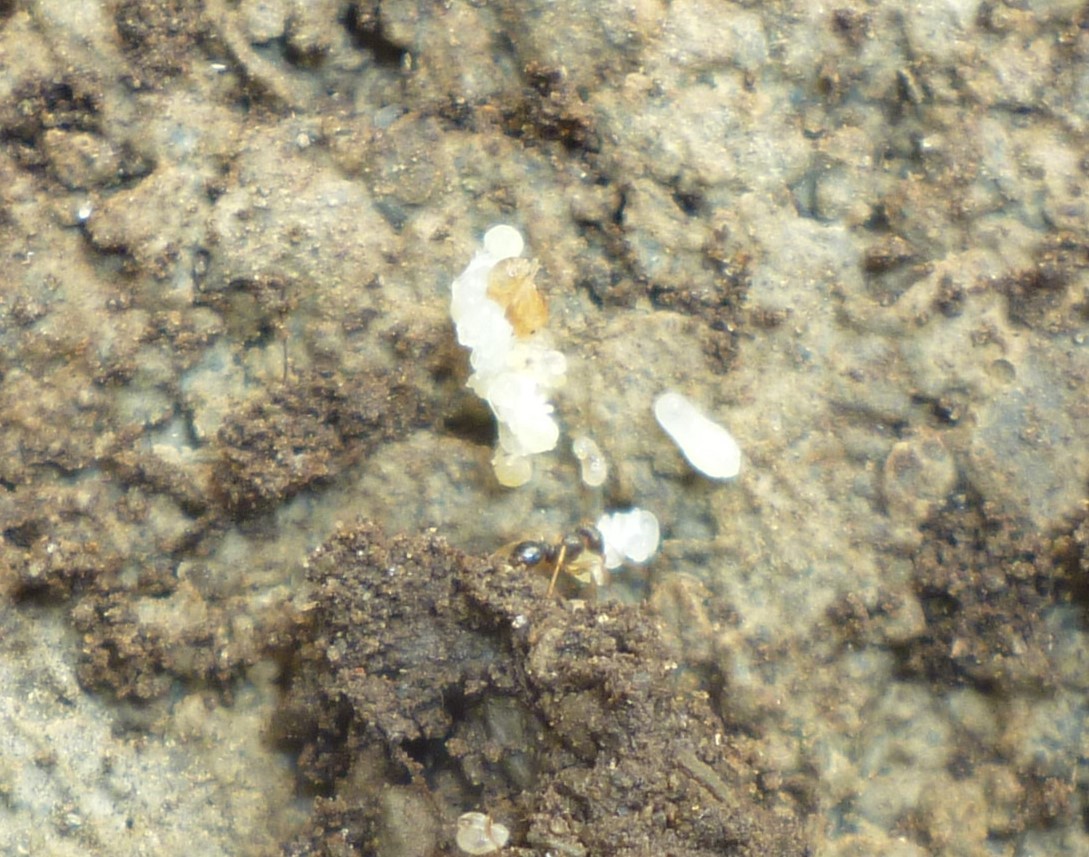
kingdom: Animalia
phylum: Arthropoda
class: Insecta
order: Hymenoptera
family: Formicidae
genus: Tetramorium
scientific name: Tetramorium immigrans
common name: Pavement ant
